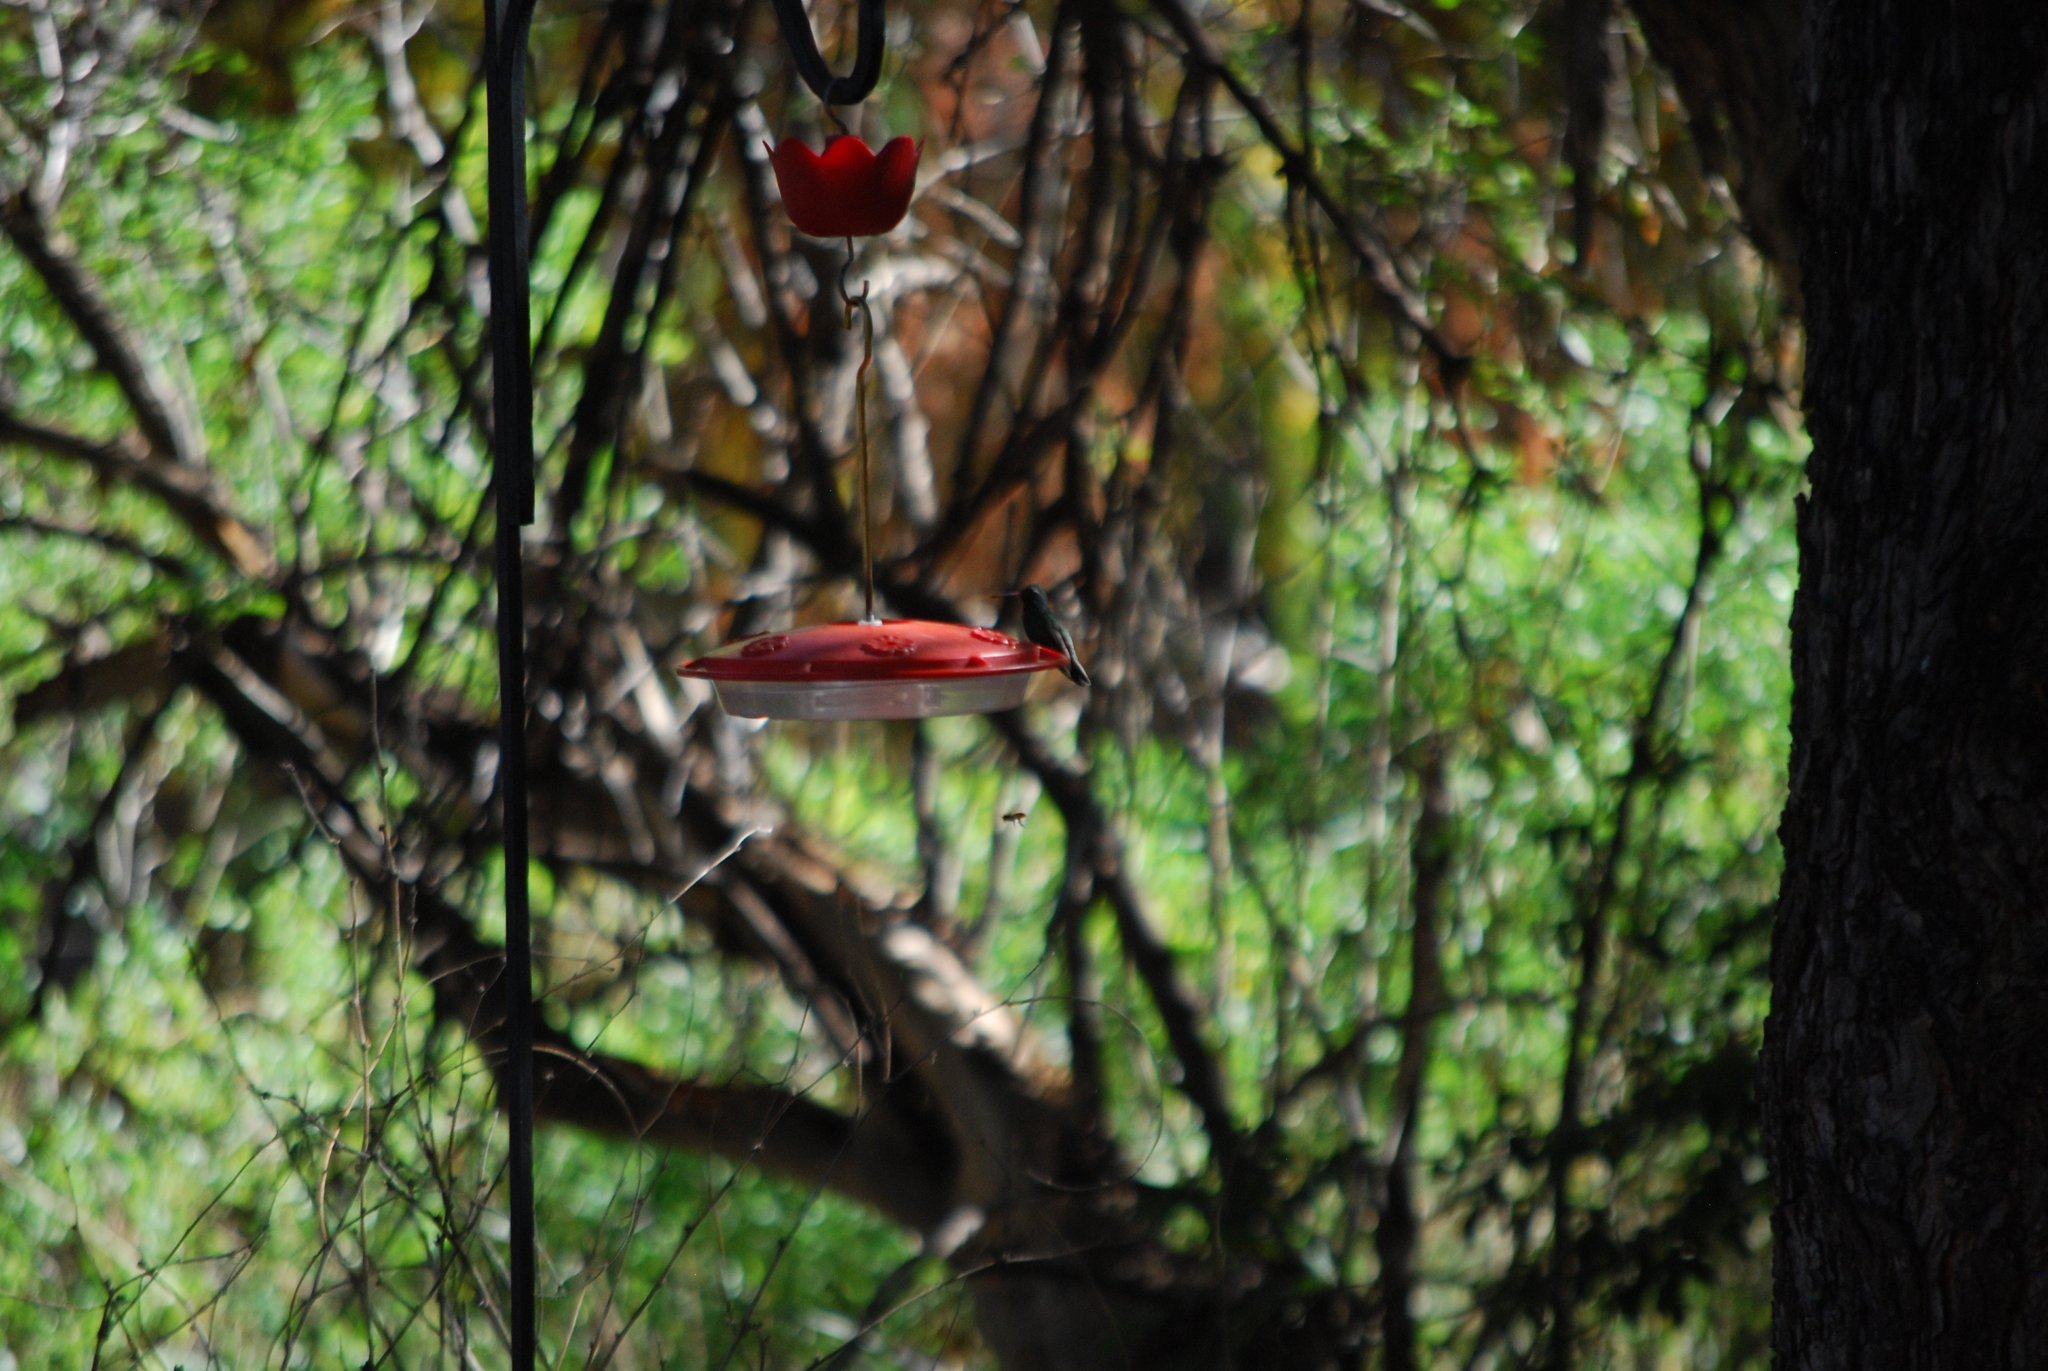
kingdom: Animalia
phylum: Chordata
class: Aves
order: Apodiformes
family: Trochilidae
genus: Cynanthus
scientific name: Cynanthus latirostris
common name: Broad-billed hummingbird
